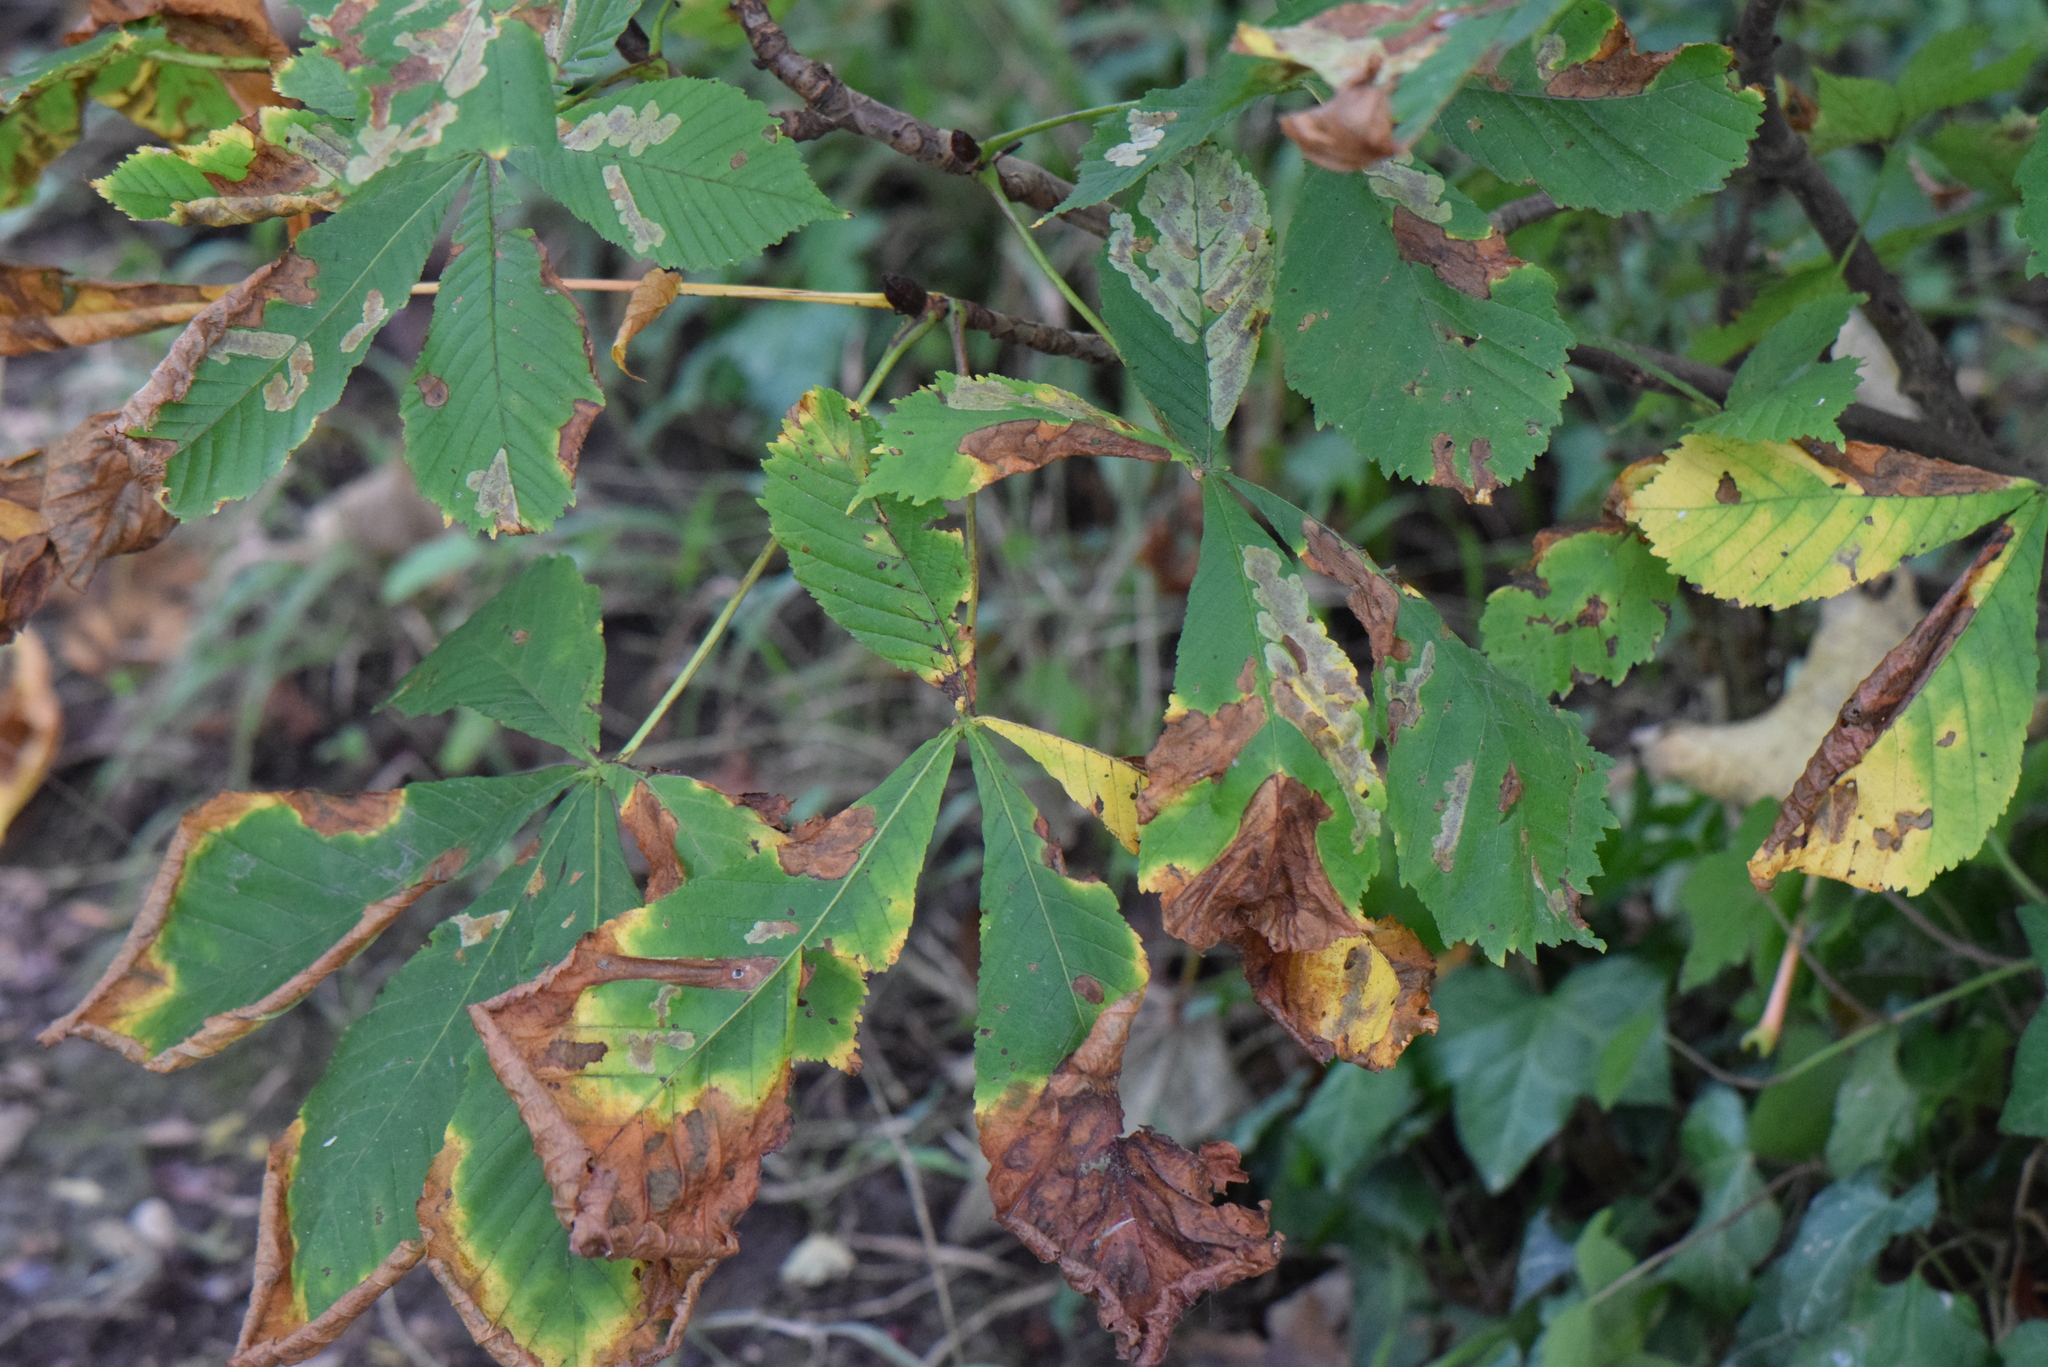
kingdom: Plantae
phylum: Tracheophyta
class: Magnoliopsida
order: Sapindales
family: Sapindaceae
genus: Aesculus
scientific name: Aesculus hippocastanum
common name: Horse-chestnut
